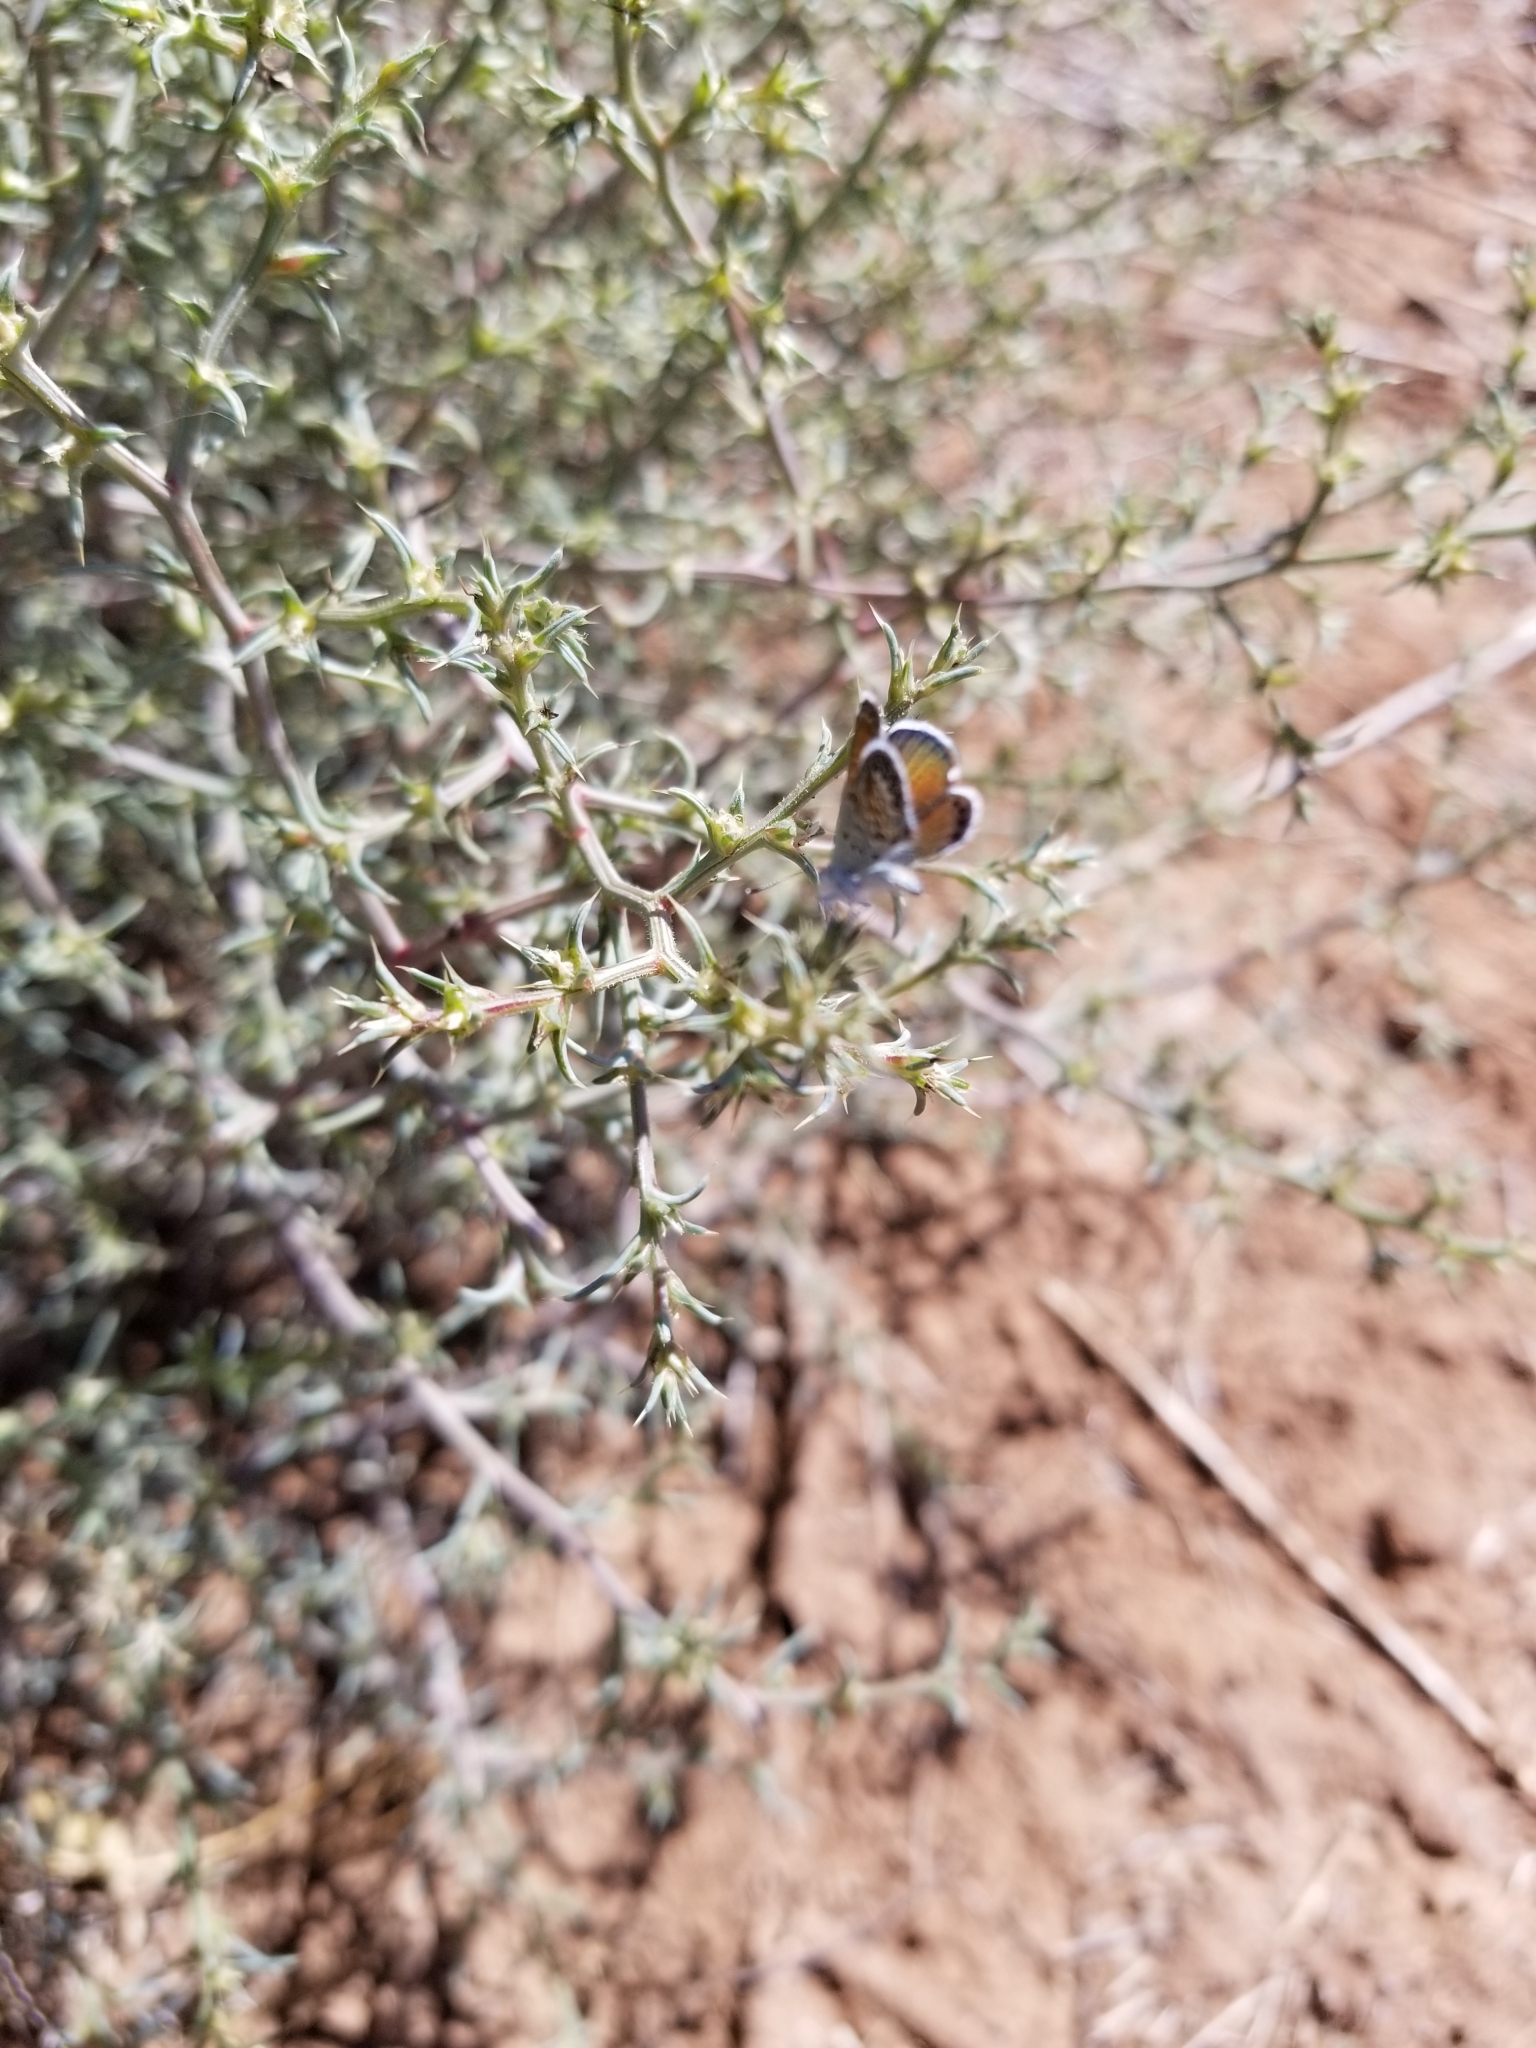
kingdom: Animalia
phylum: Arthropoda
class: Insecta
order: Lepidoptera
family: Lycaenidae
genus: Brephidium
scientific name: Brephidium exilis
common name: Pygmy blue
